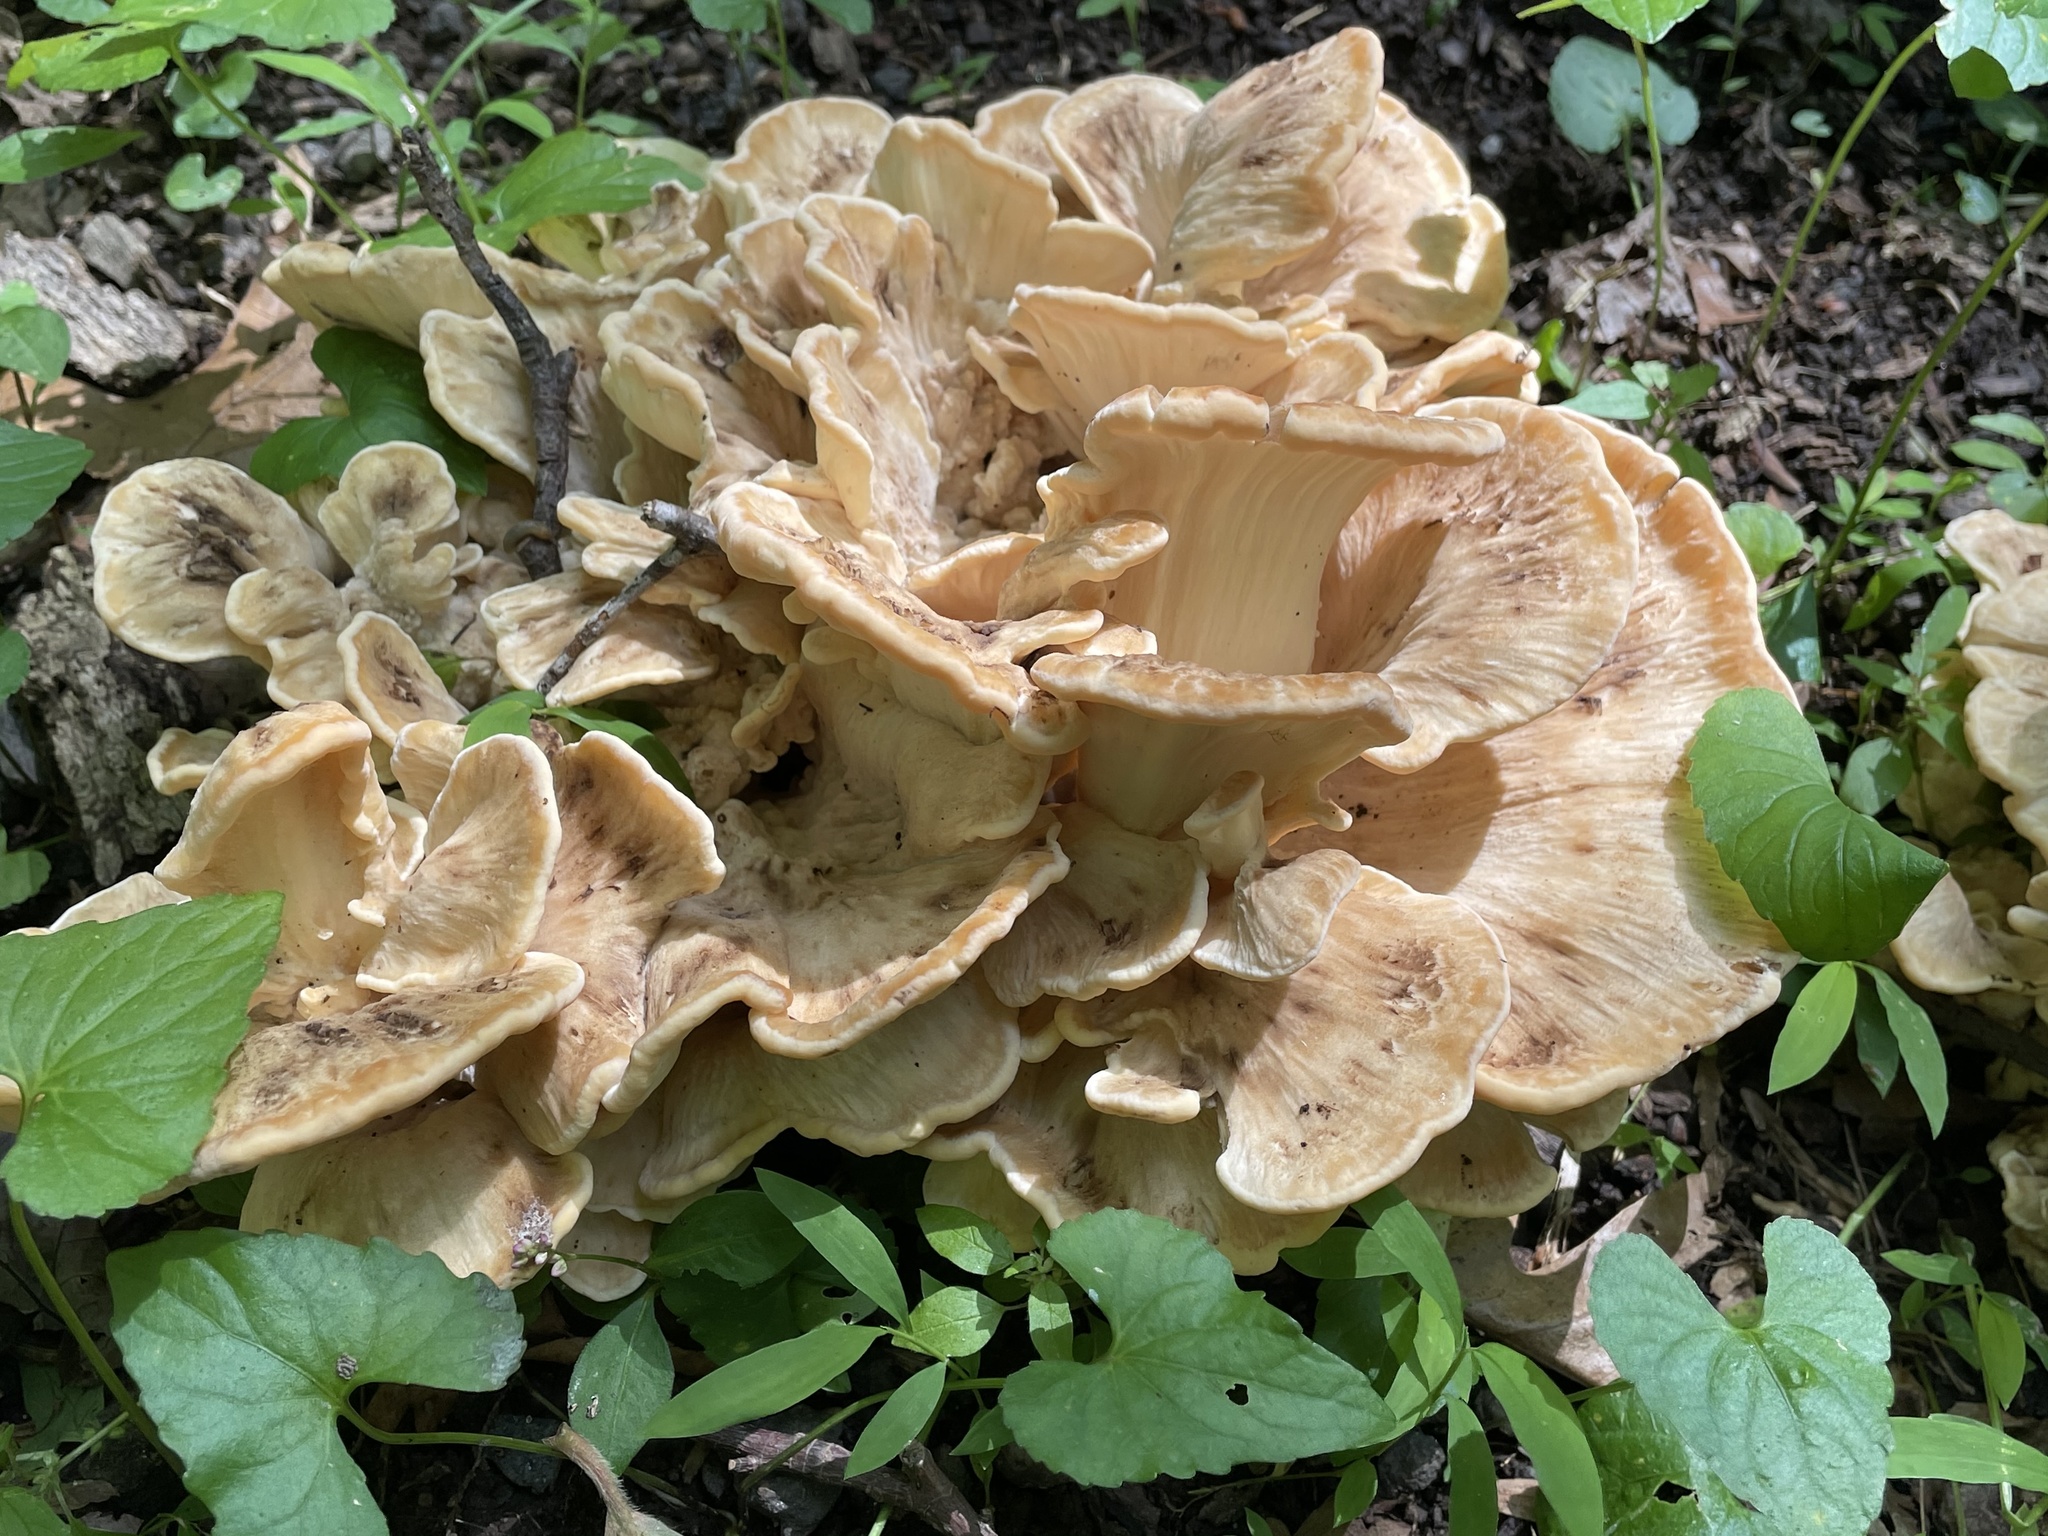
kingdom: Fungi
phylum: Basidiomycota
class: Agaricomycetes
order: Polyporales
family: Meripilaceae
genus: Meripilus
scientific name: Meripilus sumstinei
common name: Black-staining polypore
